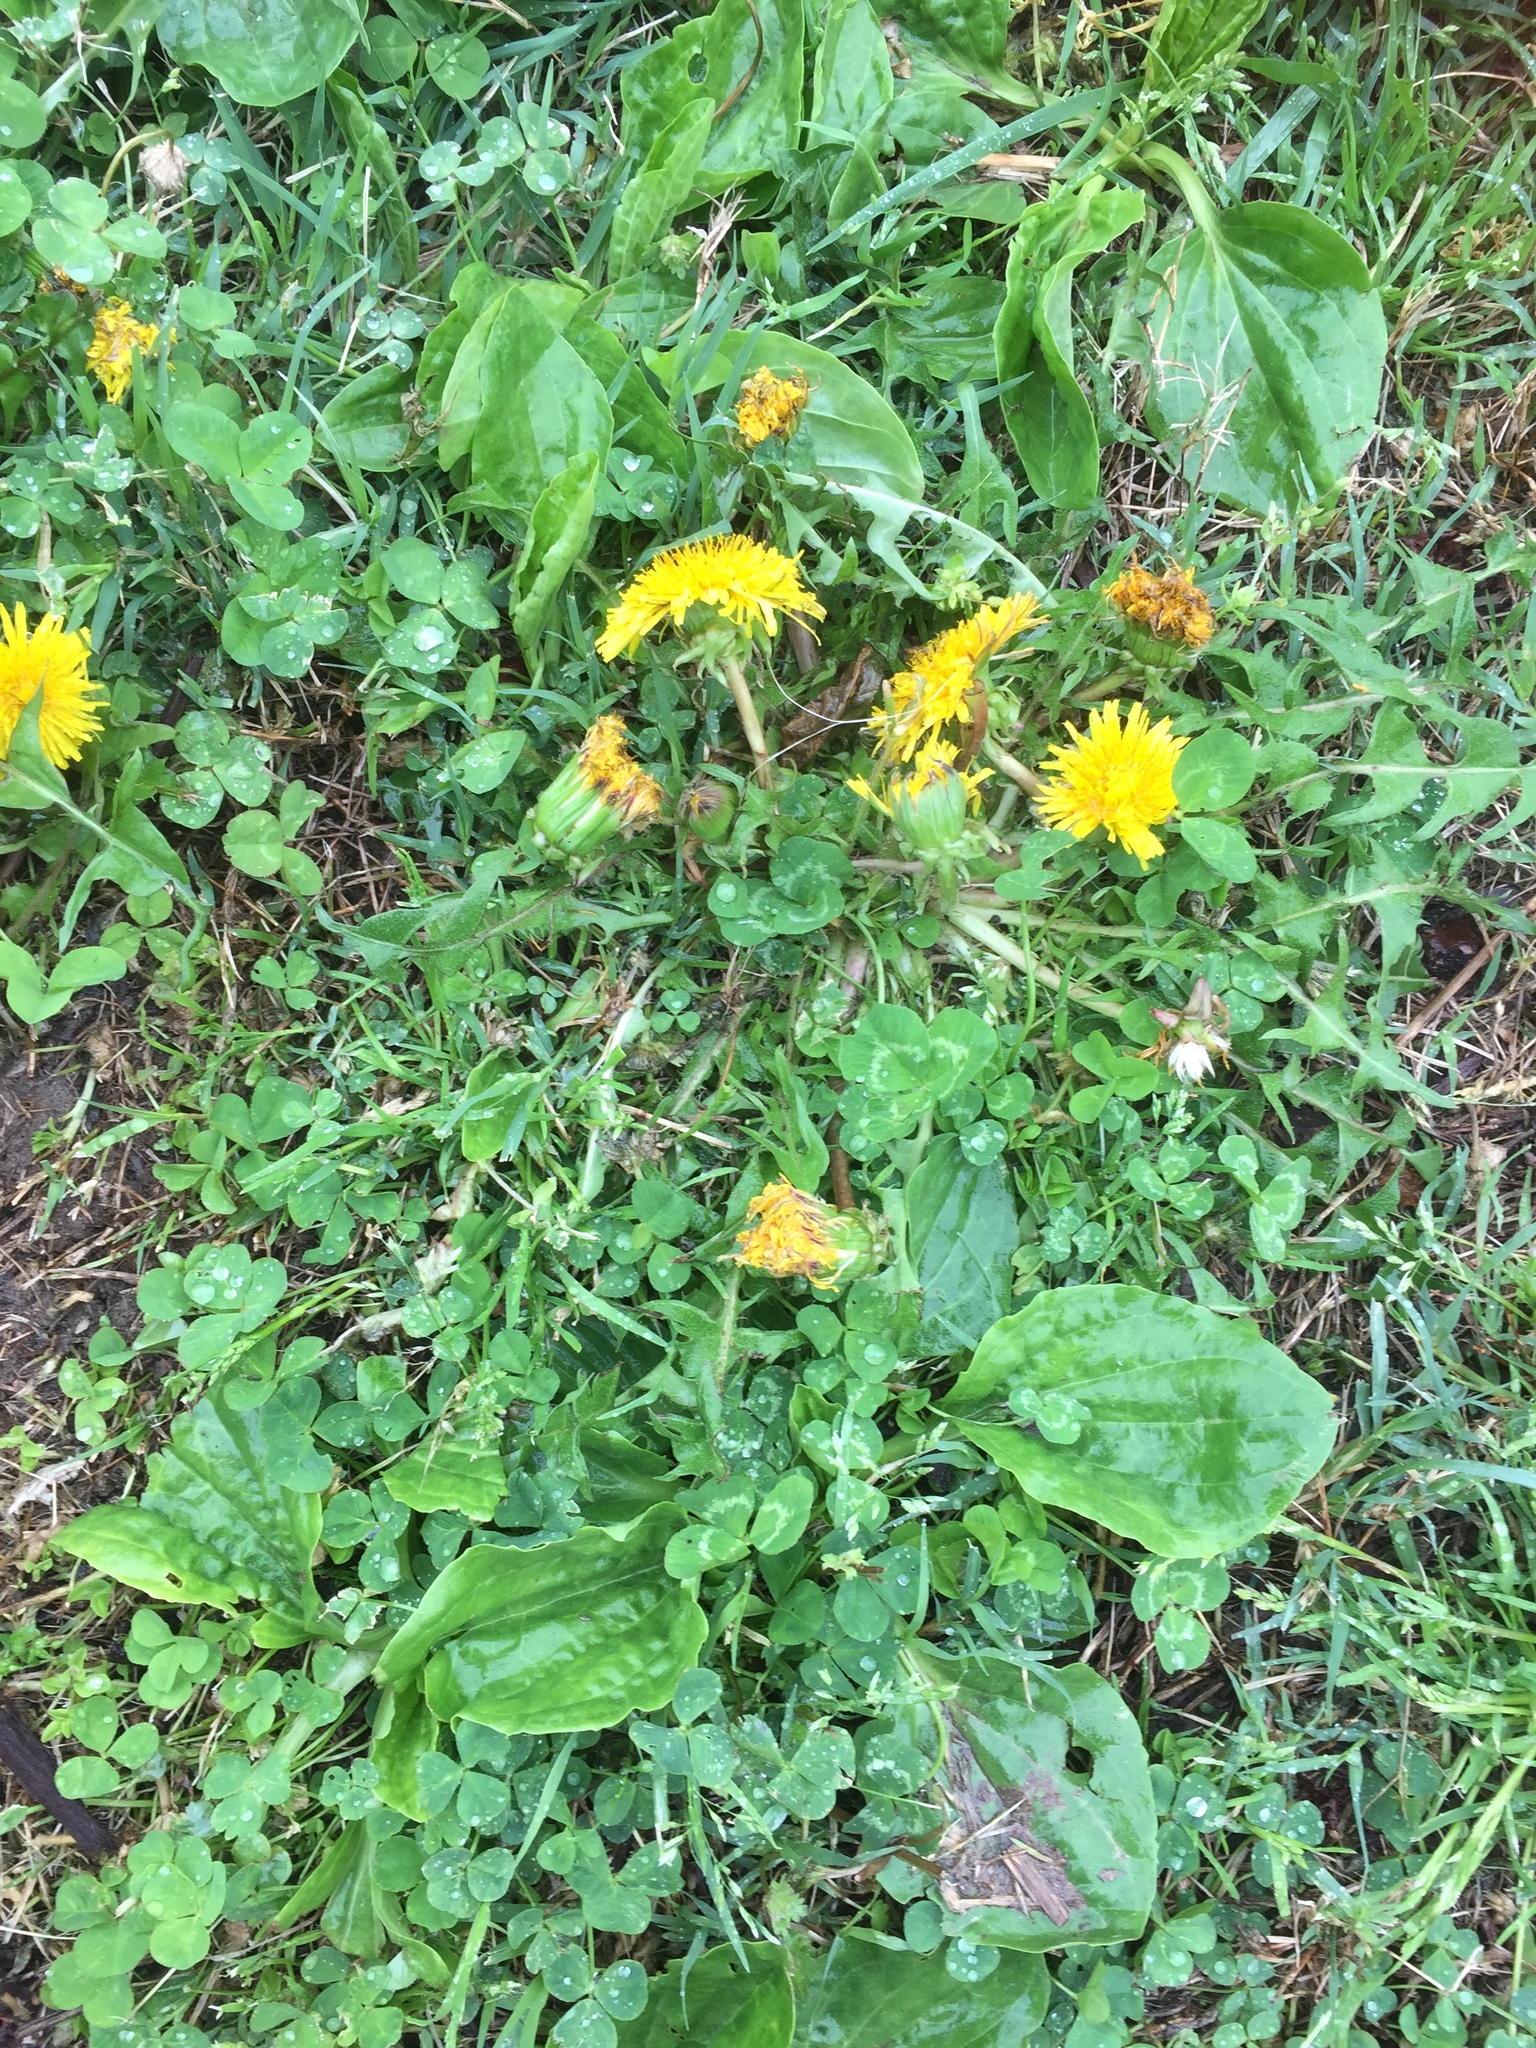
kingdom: Plantae
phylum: Tracheophyta
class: Magnoliopsida
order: Asterales
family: Asteraceae
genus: Taraxacum
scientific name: Taraxacum officinale
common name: Common dandelion
